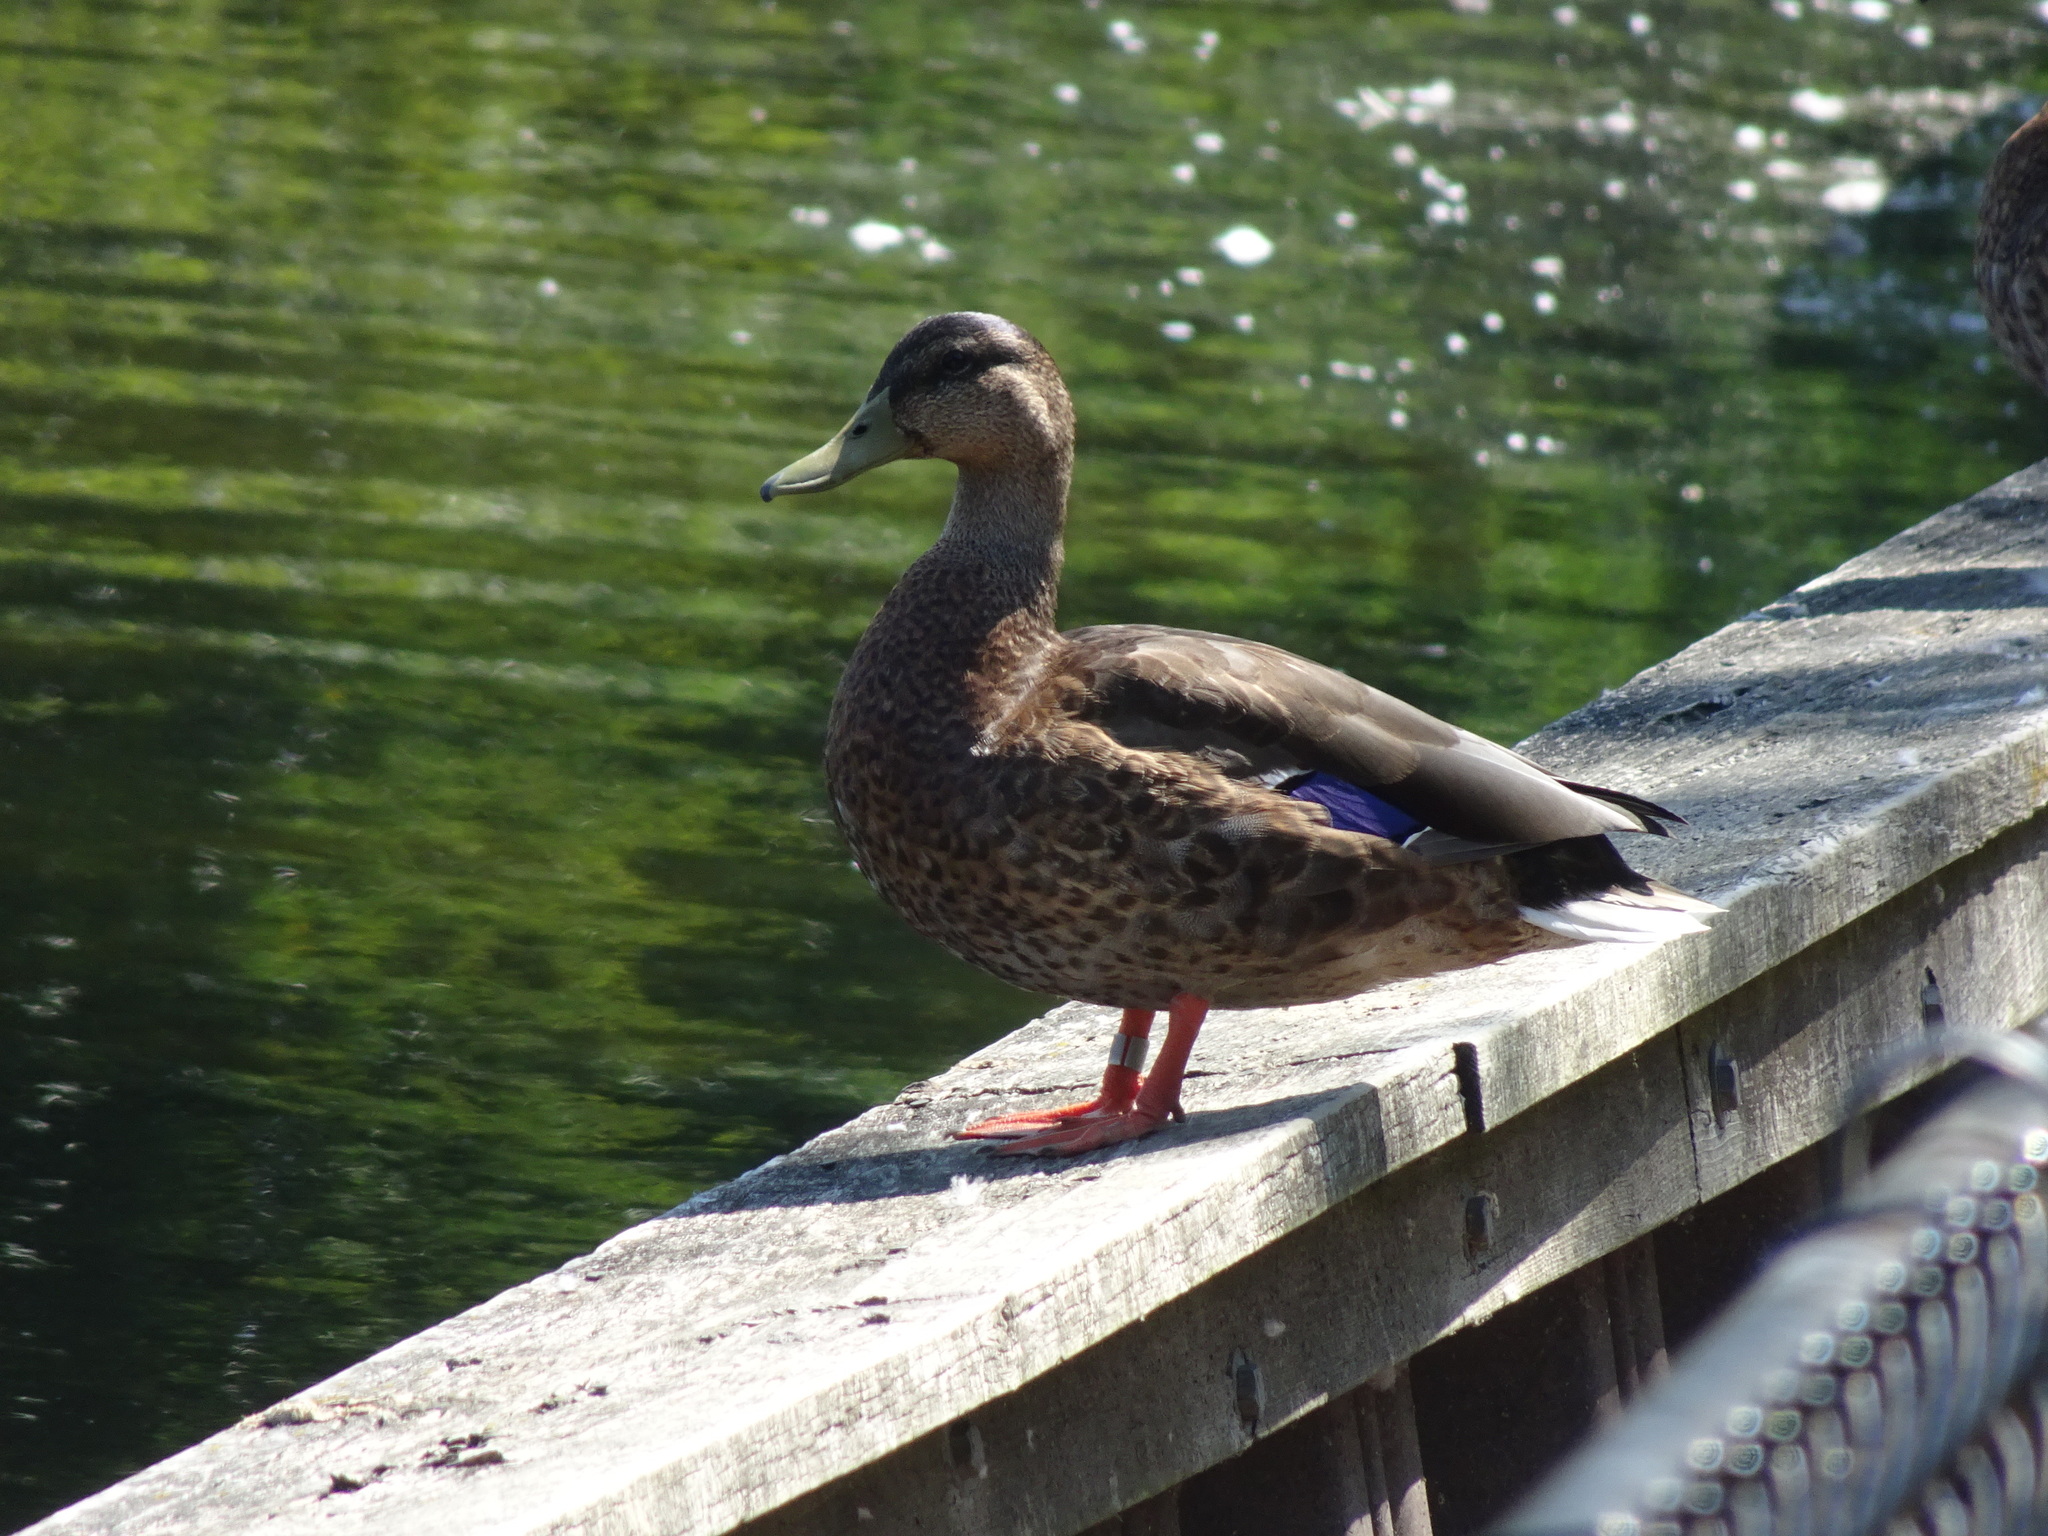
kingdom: Animalia
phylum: Chordata
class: Aves
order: Anseriformes
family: Anatidae
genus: Anas
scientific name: Anas platyrhynchos
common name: Mallard
